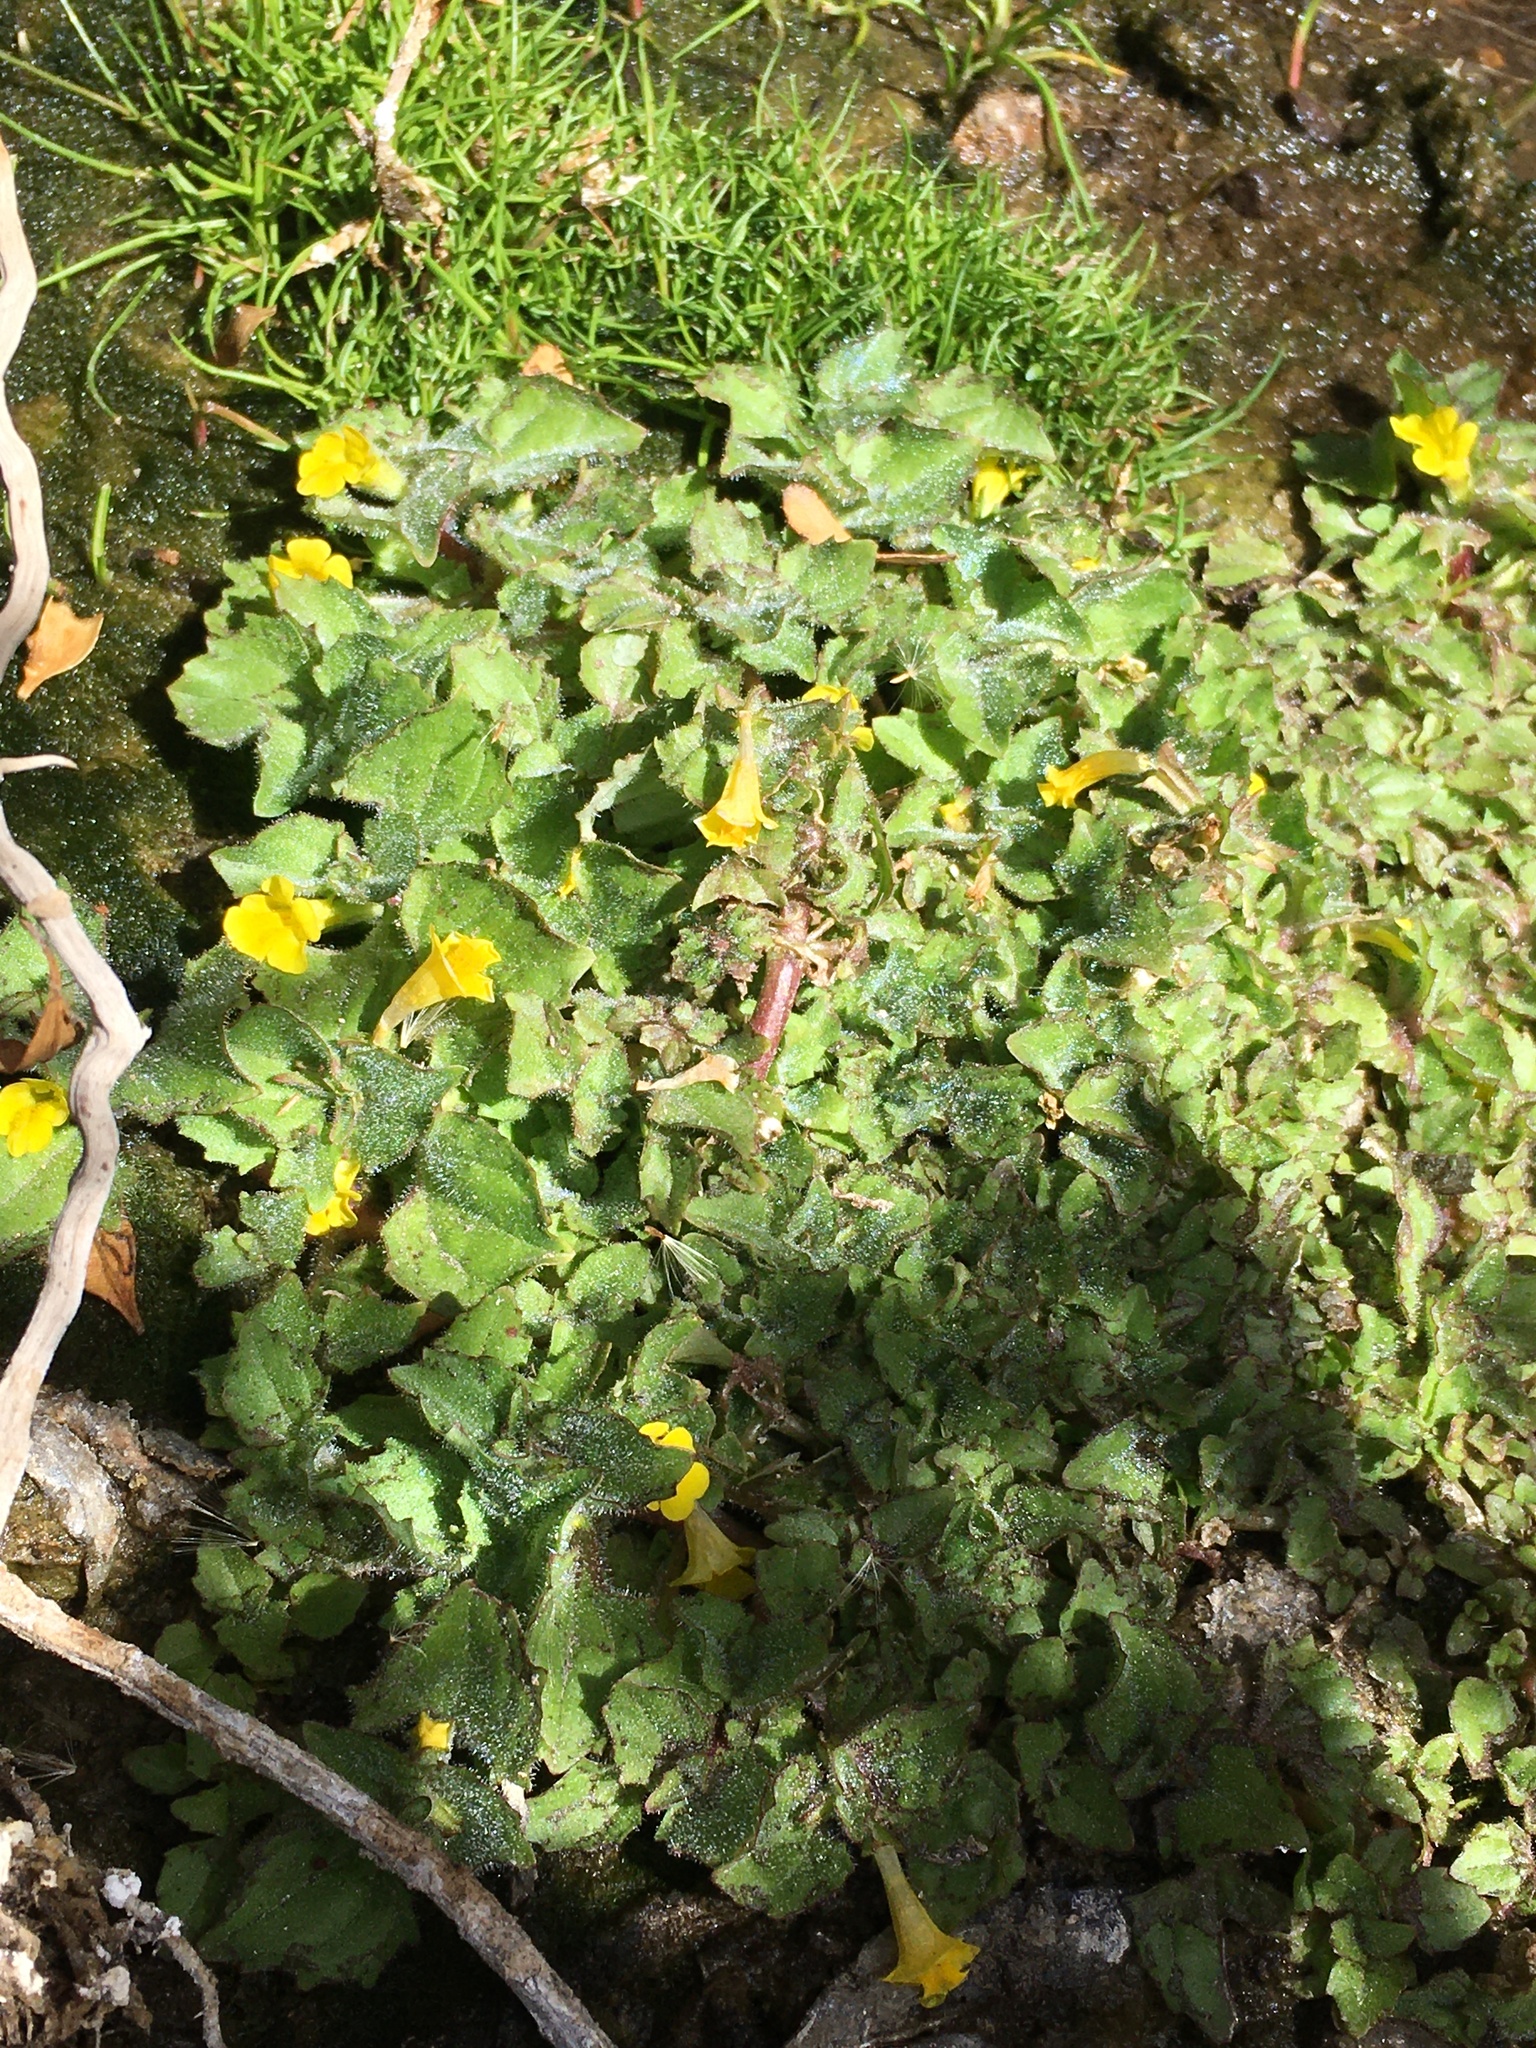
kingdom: Plantae
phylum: Tracheophyta
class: Magnoliopsida
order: Lamiales
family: Phrymaceae
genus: Erythranthe
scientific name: Erythranthe depressa
